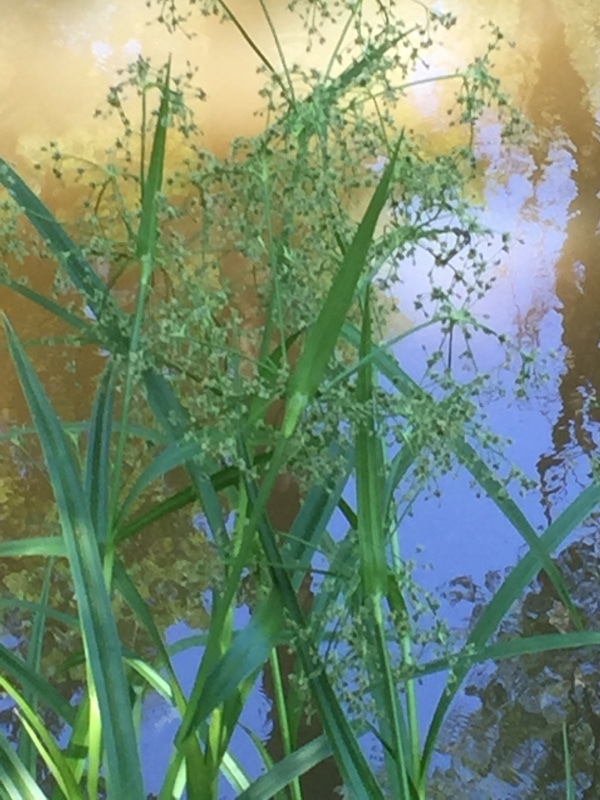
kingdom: Plantae
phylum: Tracheophyta
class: Liliopsida
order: Poales
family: Cyperaceae
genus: Scirpus
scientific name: Scirpus sylvaticus
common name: Wood club-rush
